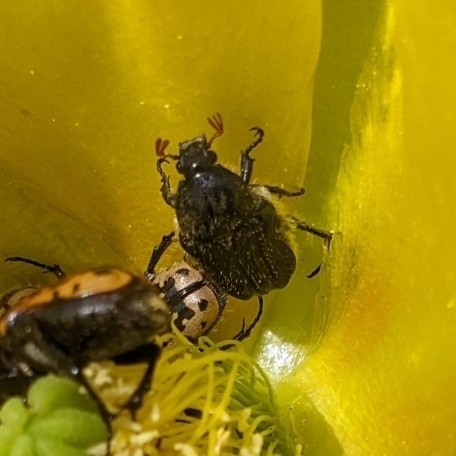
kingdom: Animalia
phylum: Arthropoda
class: Insecta
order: Coleoptera
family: Scarabaeidae
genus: Euphoria
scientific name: Euphoria kernii
